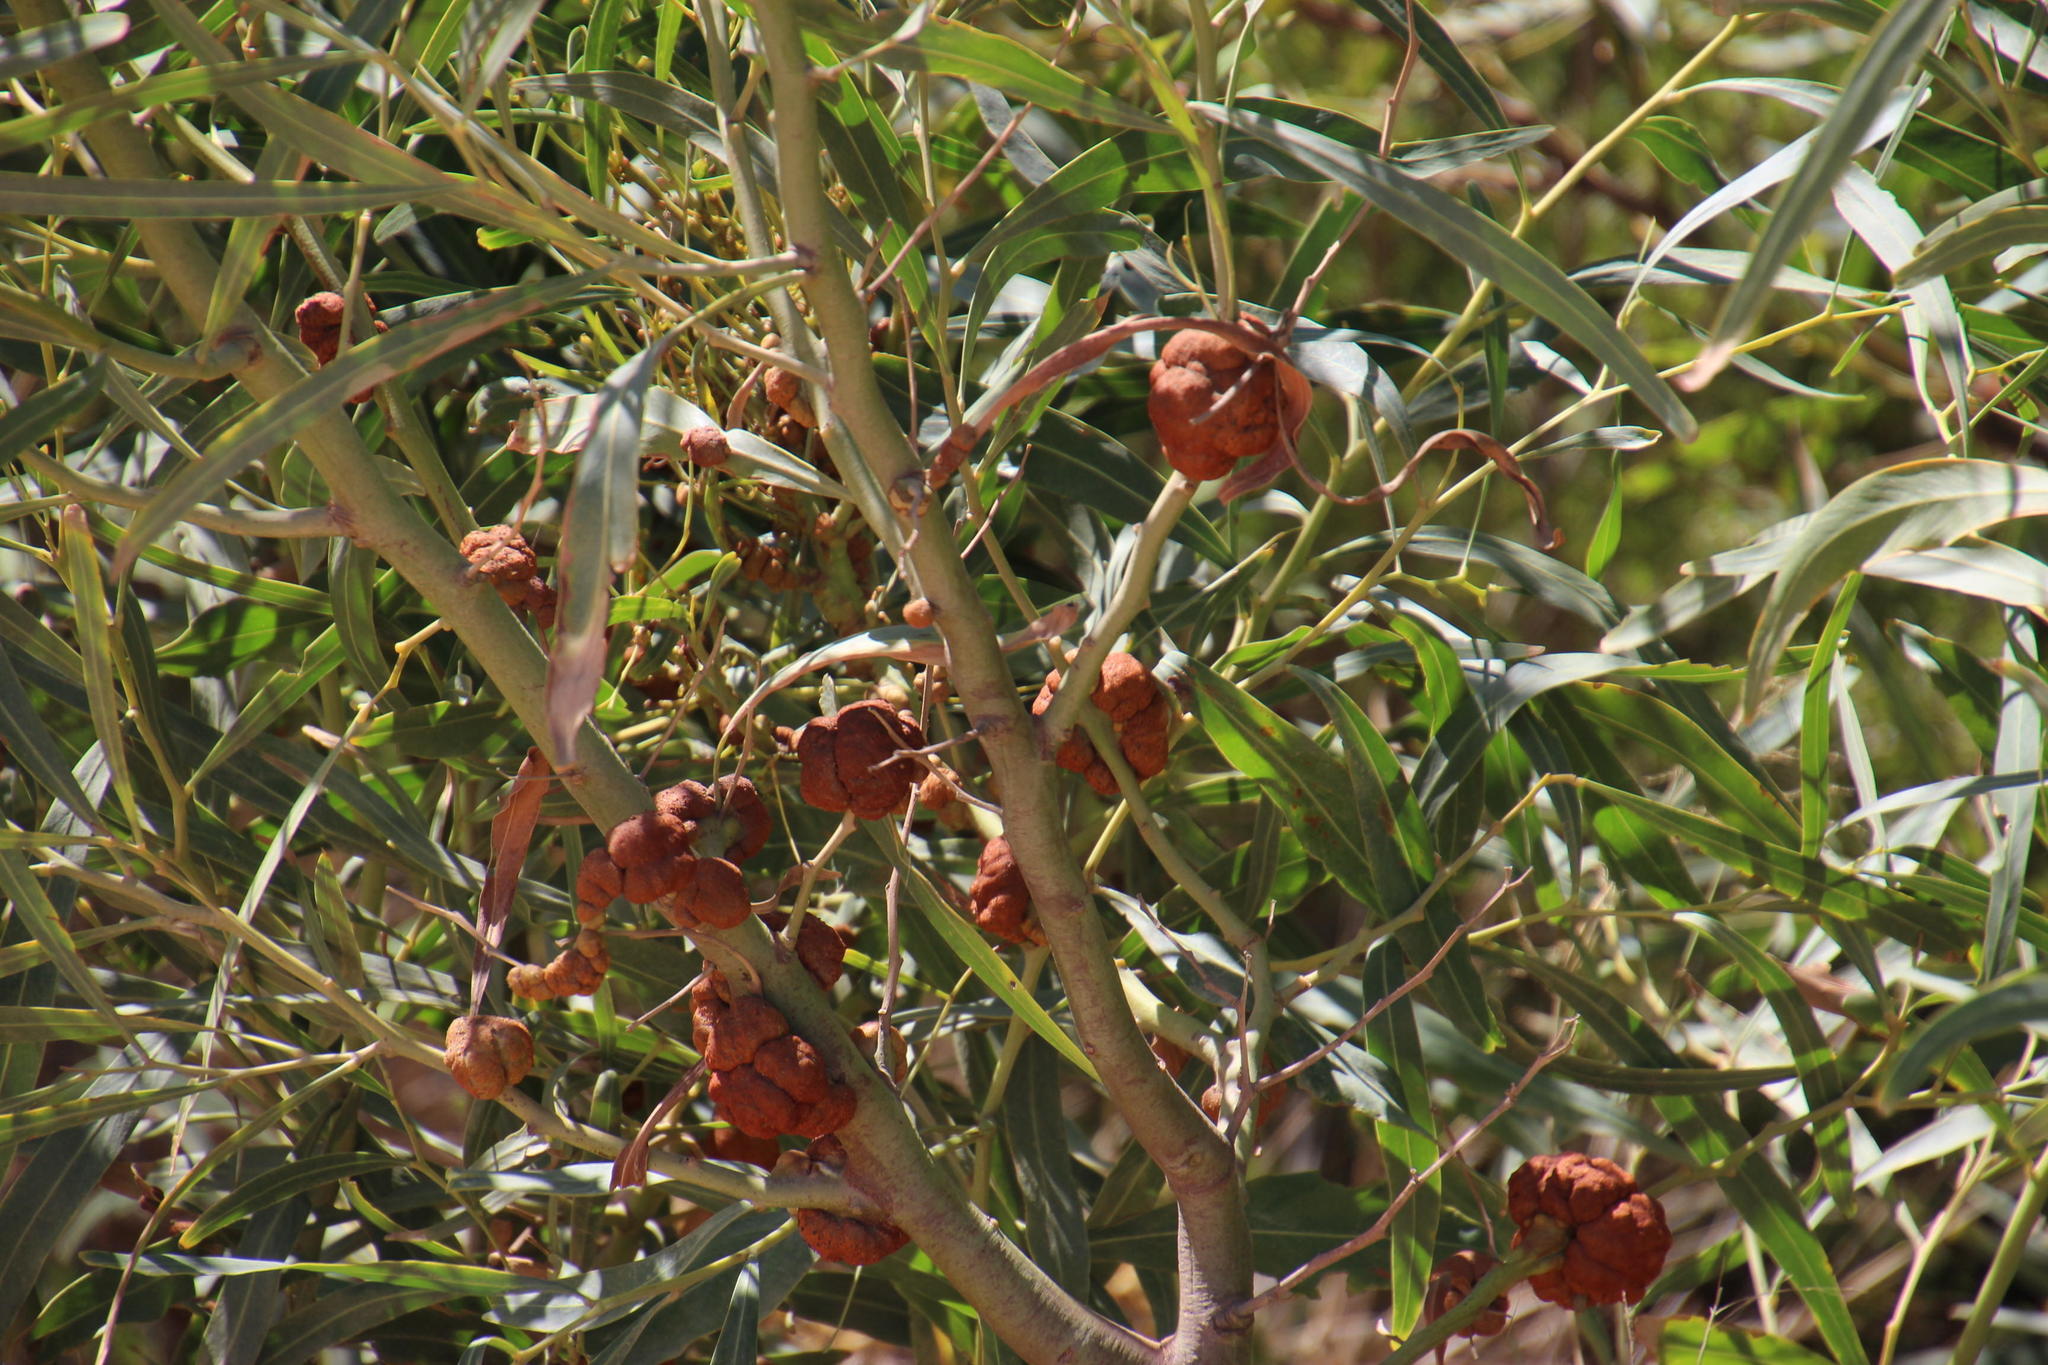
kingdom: Plantae
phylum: Tracheophyta
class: Magnoliopsida
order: Fabales
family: Fabaceae
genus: Acacia
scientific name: Acacia saligna
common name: Orange wattle
